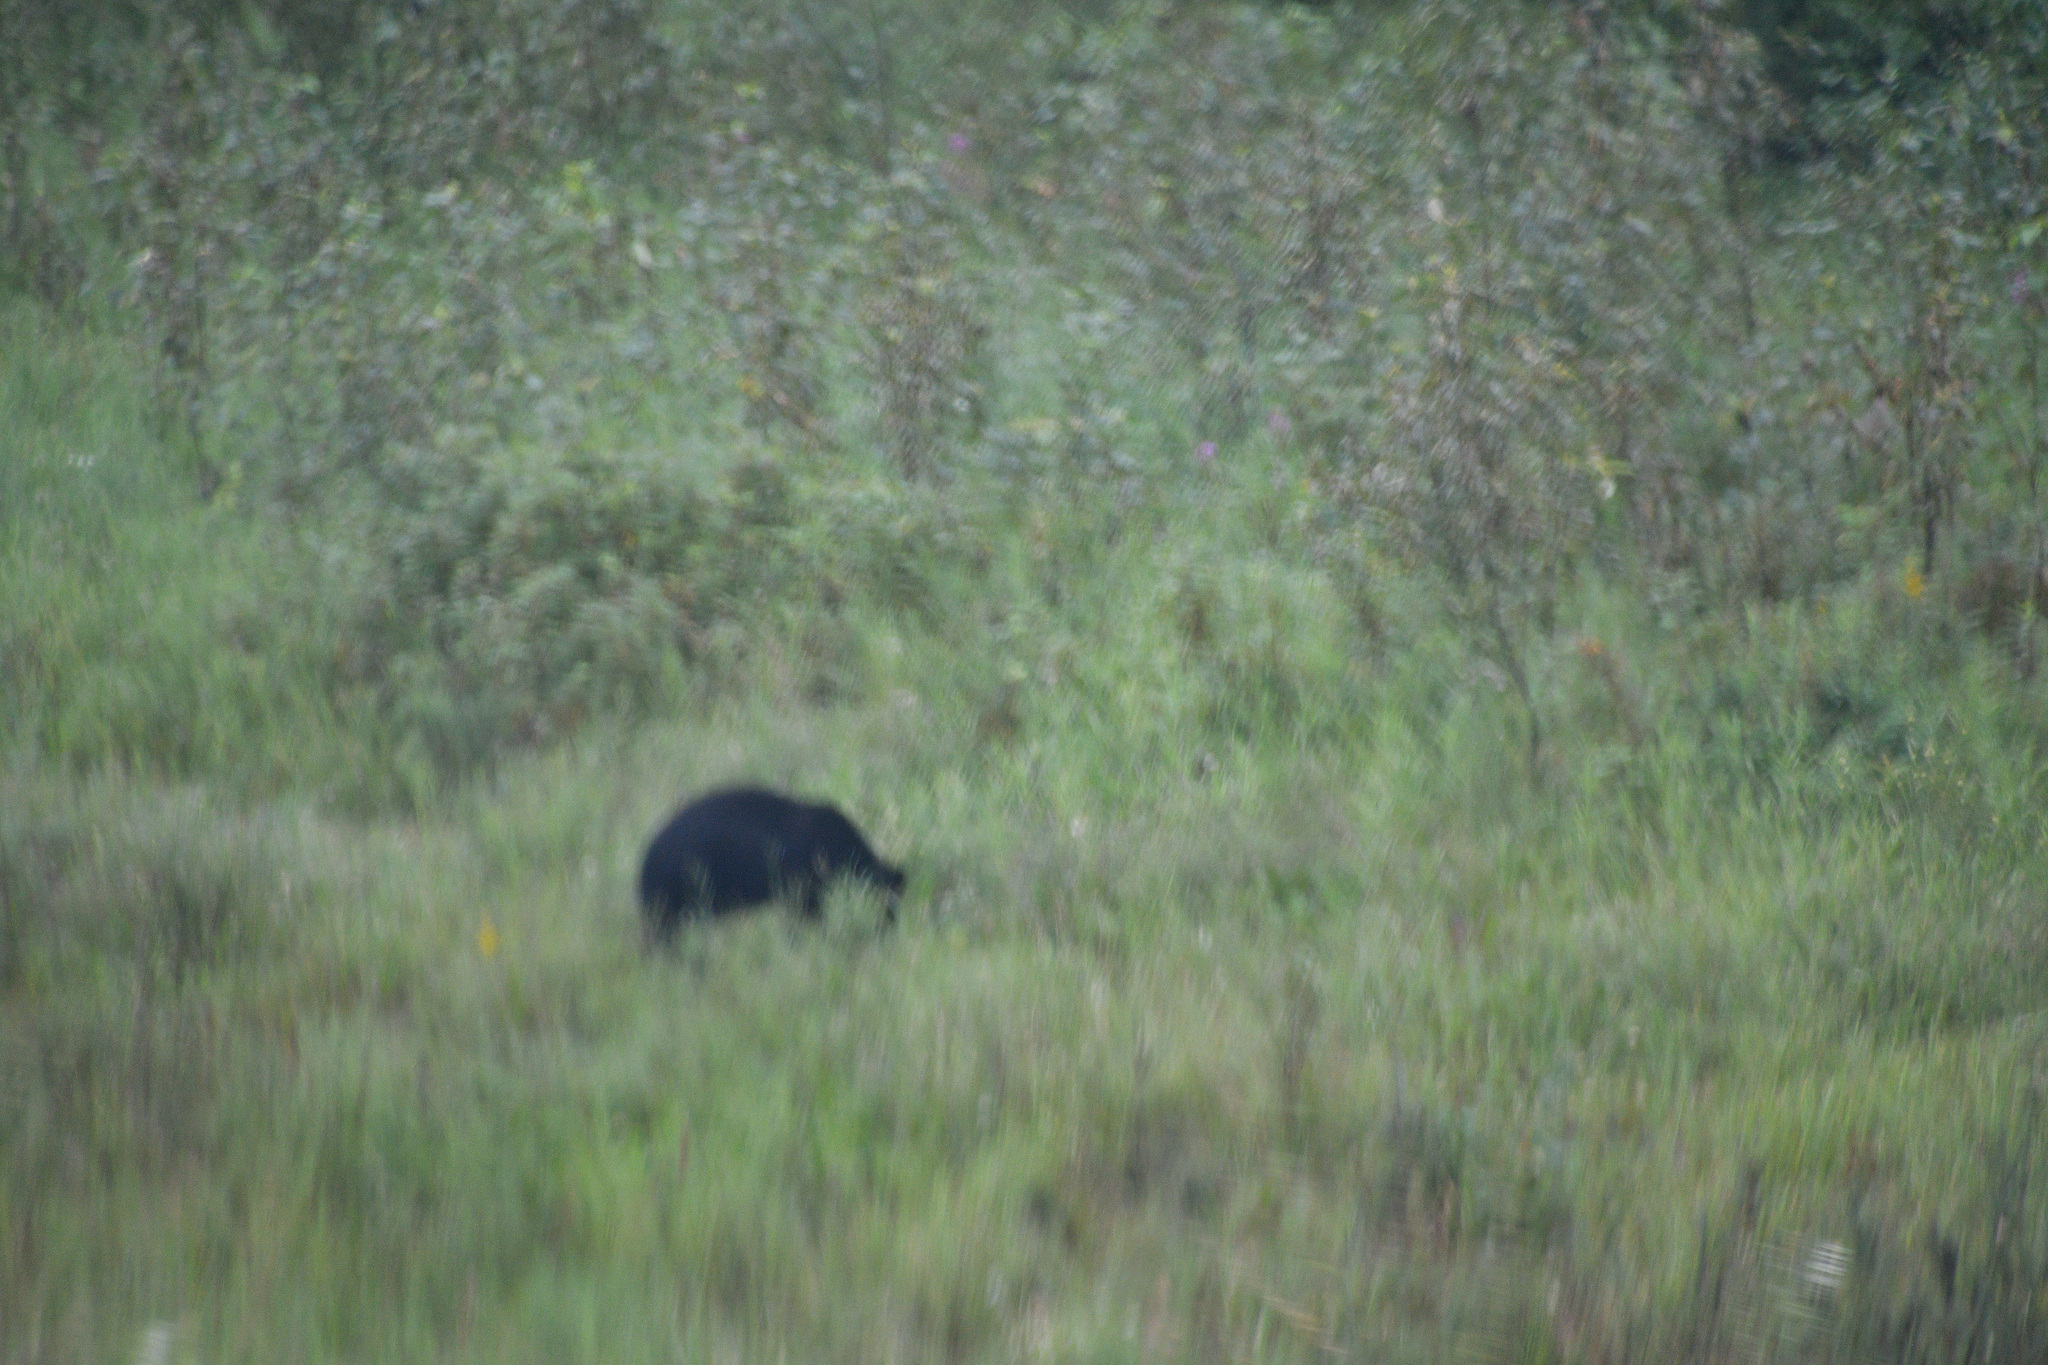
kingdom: Animalia
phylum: Chordata
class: Mammalia
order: Carnivora
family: Ursidae
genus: Ursus
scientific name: Ursus americanus
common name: American black bear
